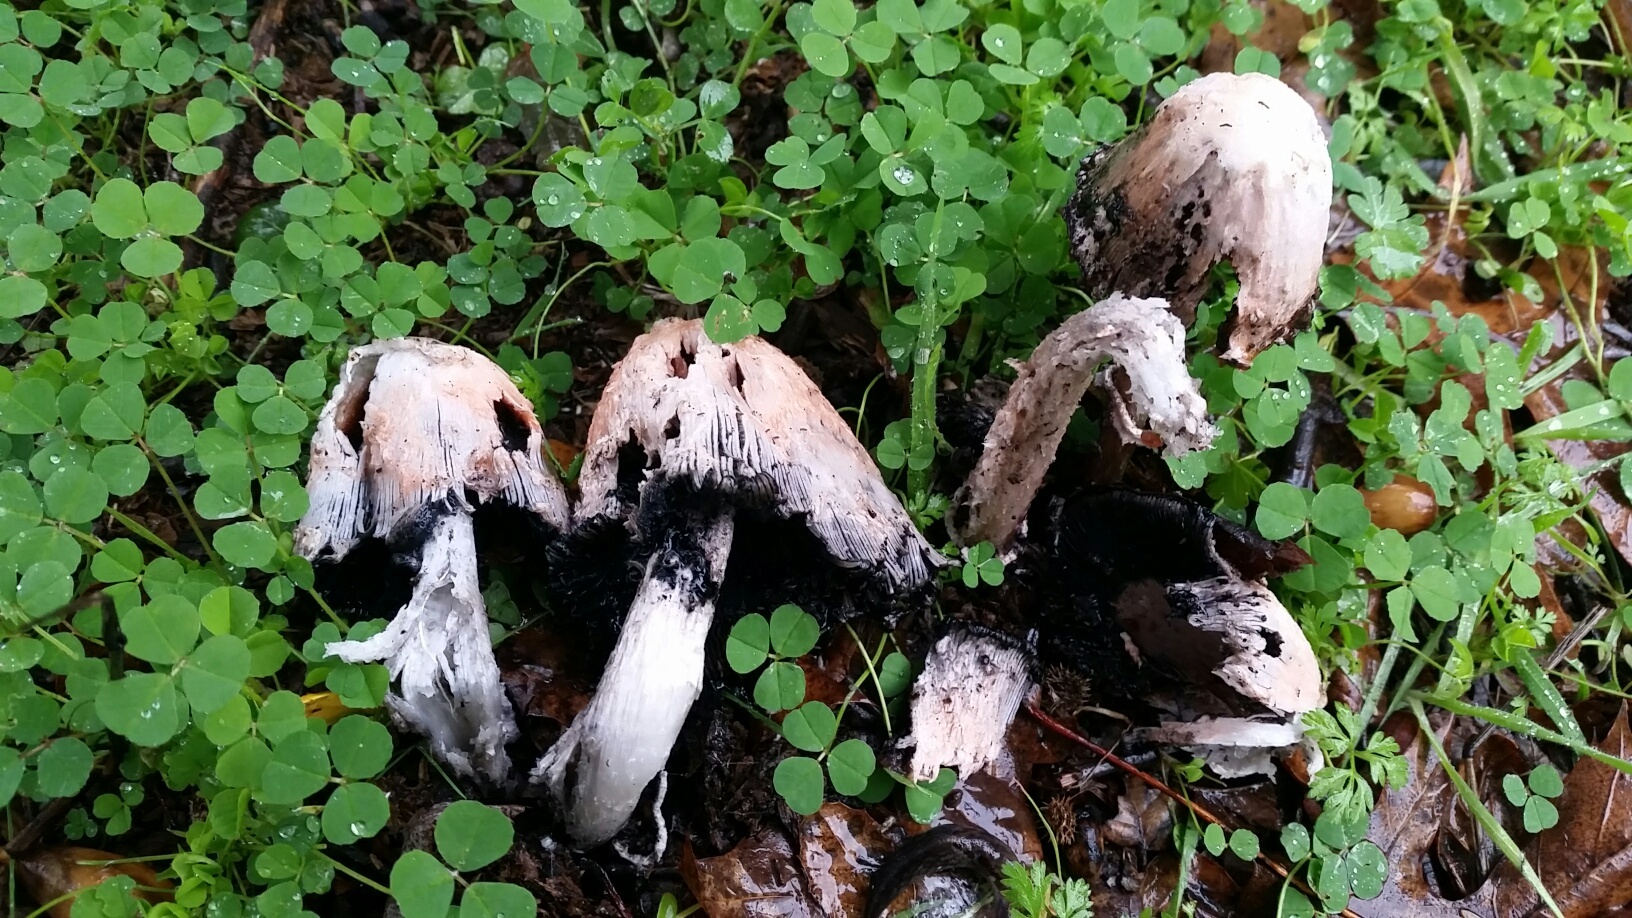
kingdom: Fungi
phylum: Basidiomycota
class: Agaricomycetes
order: Agaricales
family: Agaricaceae
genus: Coprinus
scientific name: Coprinus comatus
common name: Lawyer's wig
